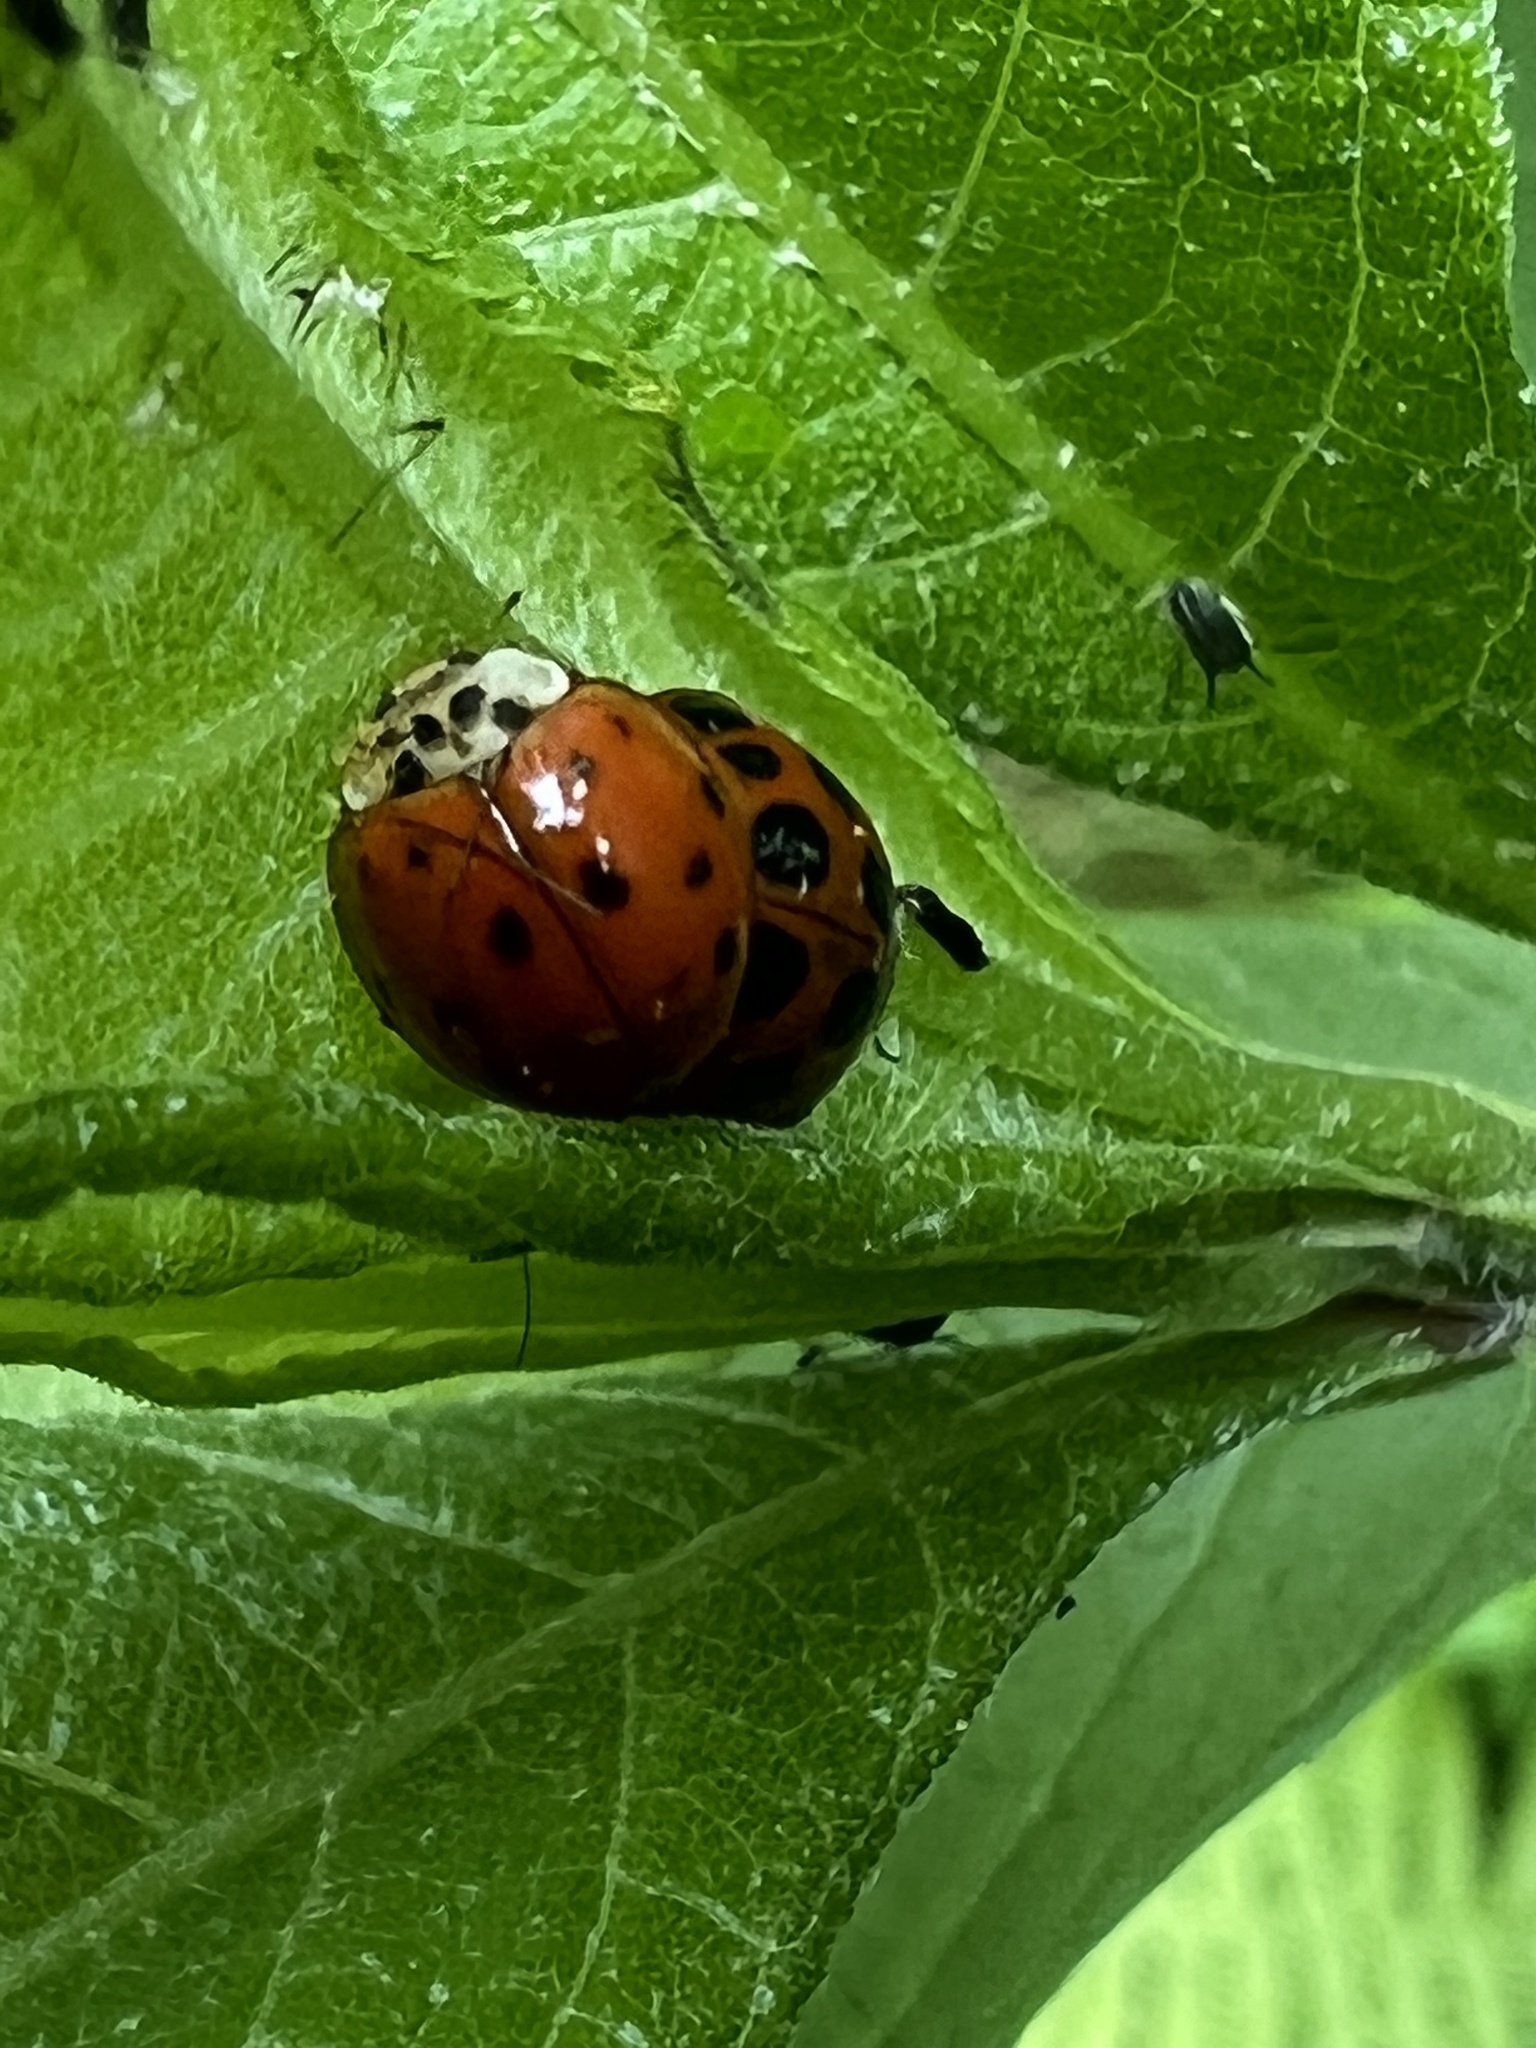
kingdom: Animalia
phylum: Arthropoda
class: Insecta
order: Coleoptera
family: Coccinellidae
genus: Harmonia
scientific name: Harmonia axyridis
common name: Harlequin ladybird
